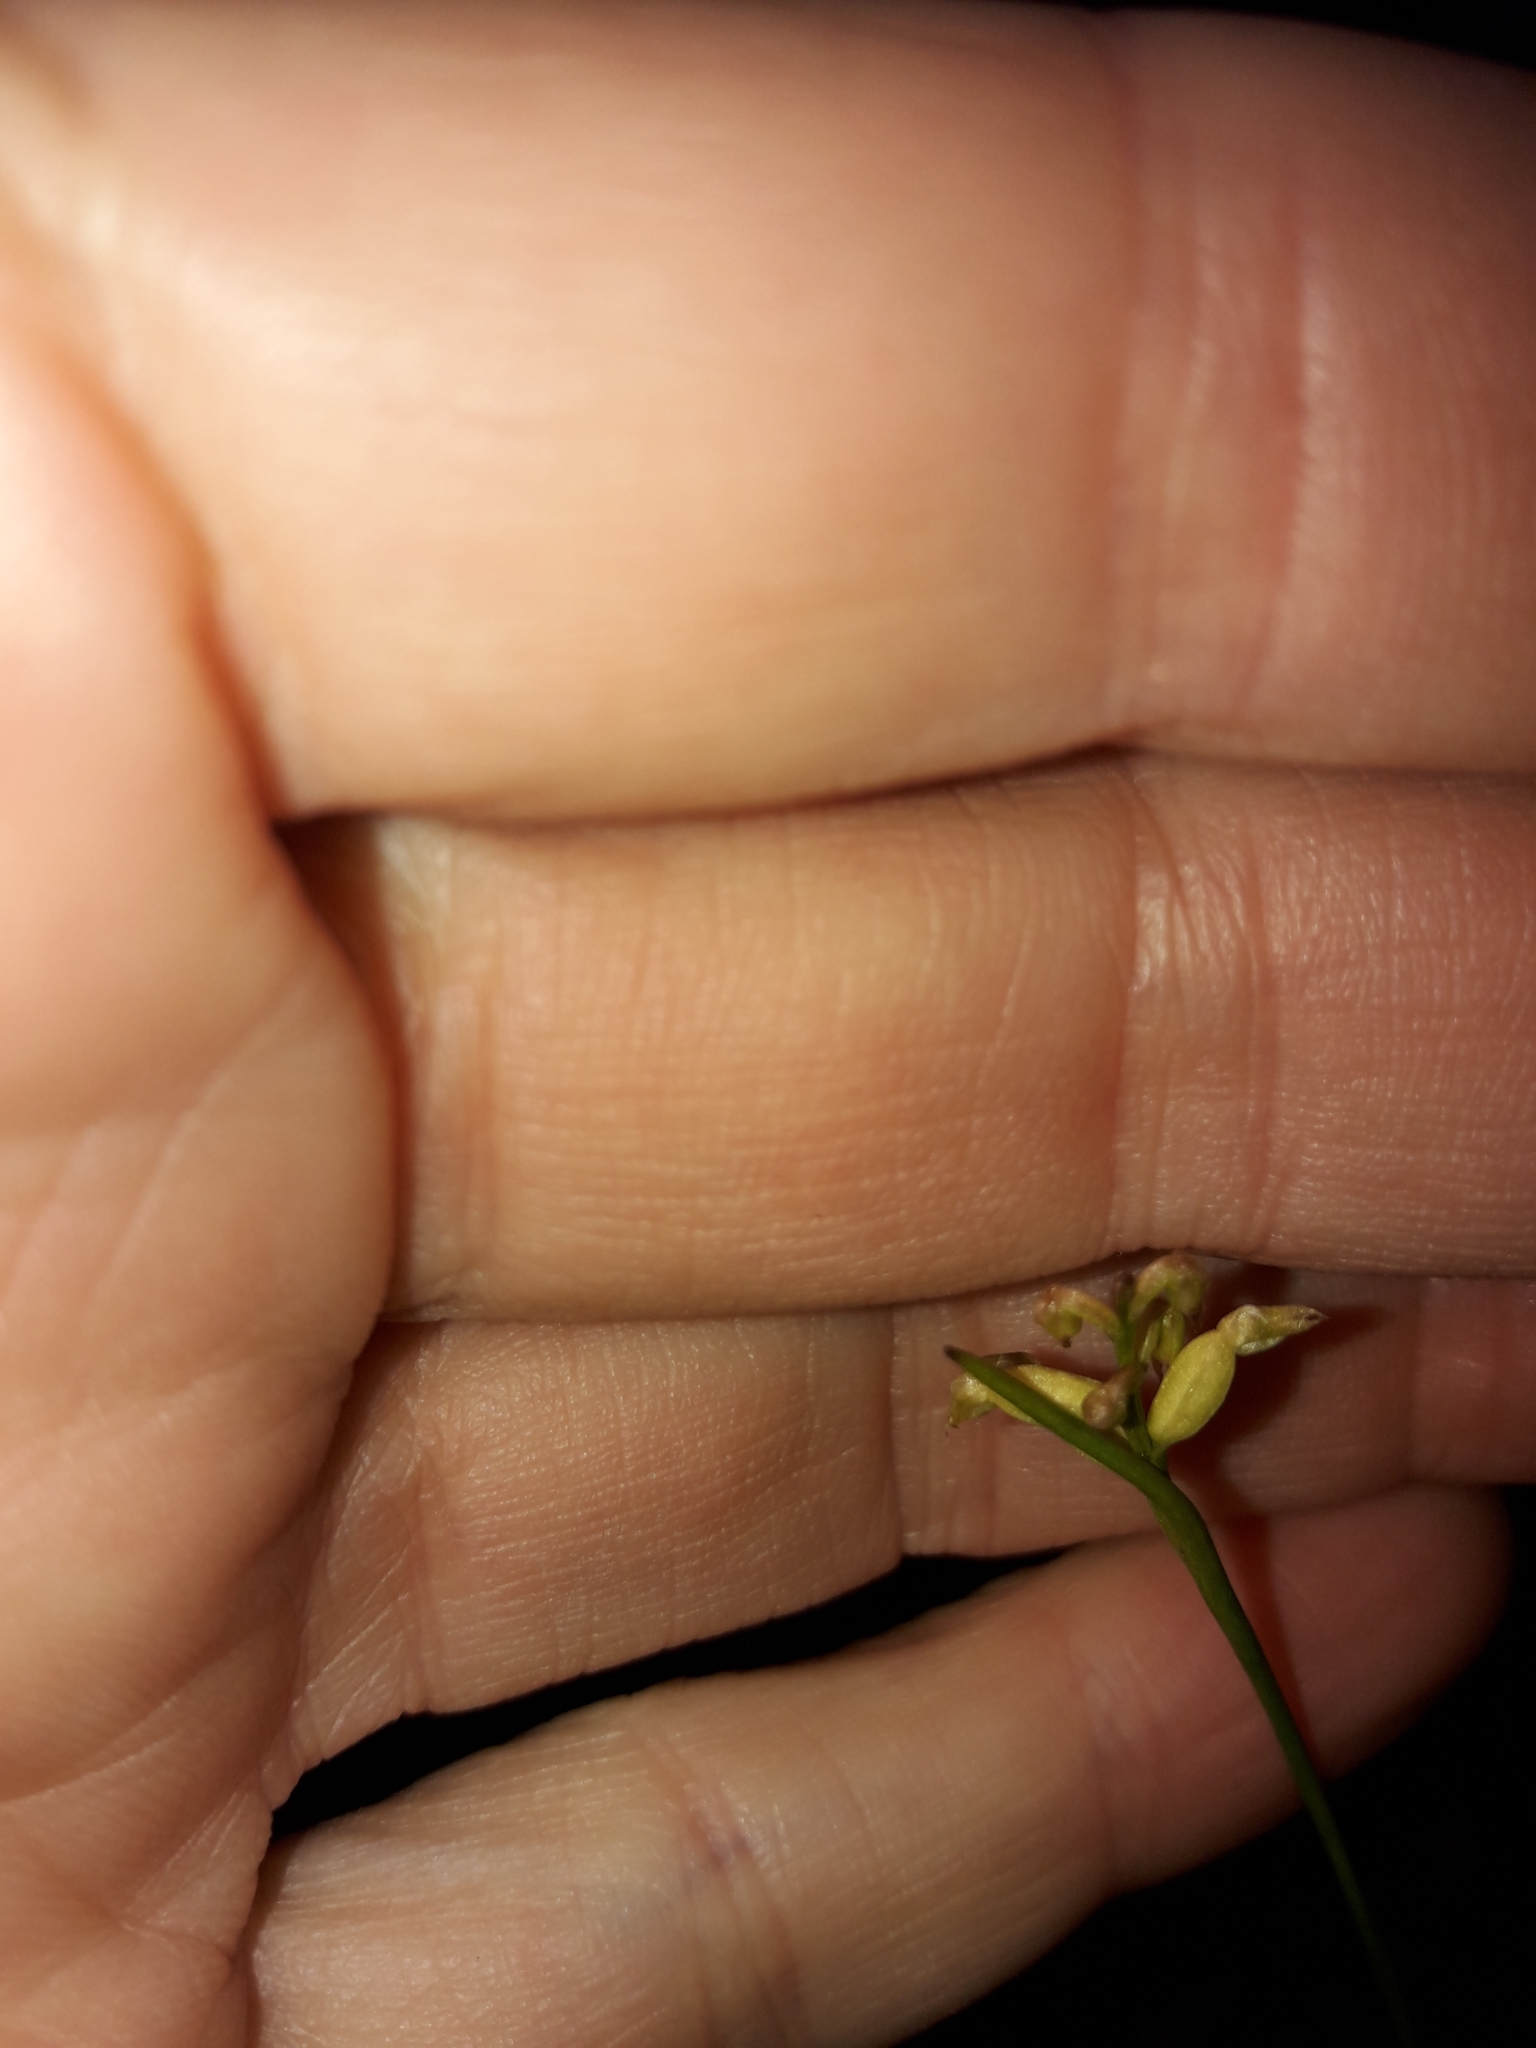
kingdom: Plantae
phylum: Tracheophyta
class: Liliopsida
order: Asparagales
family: Orchidaceae
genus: Genoplesium
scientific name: Genoplesium pumilum
